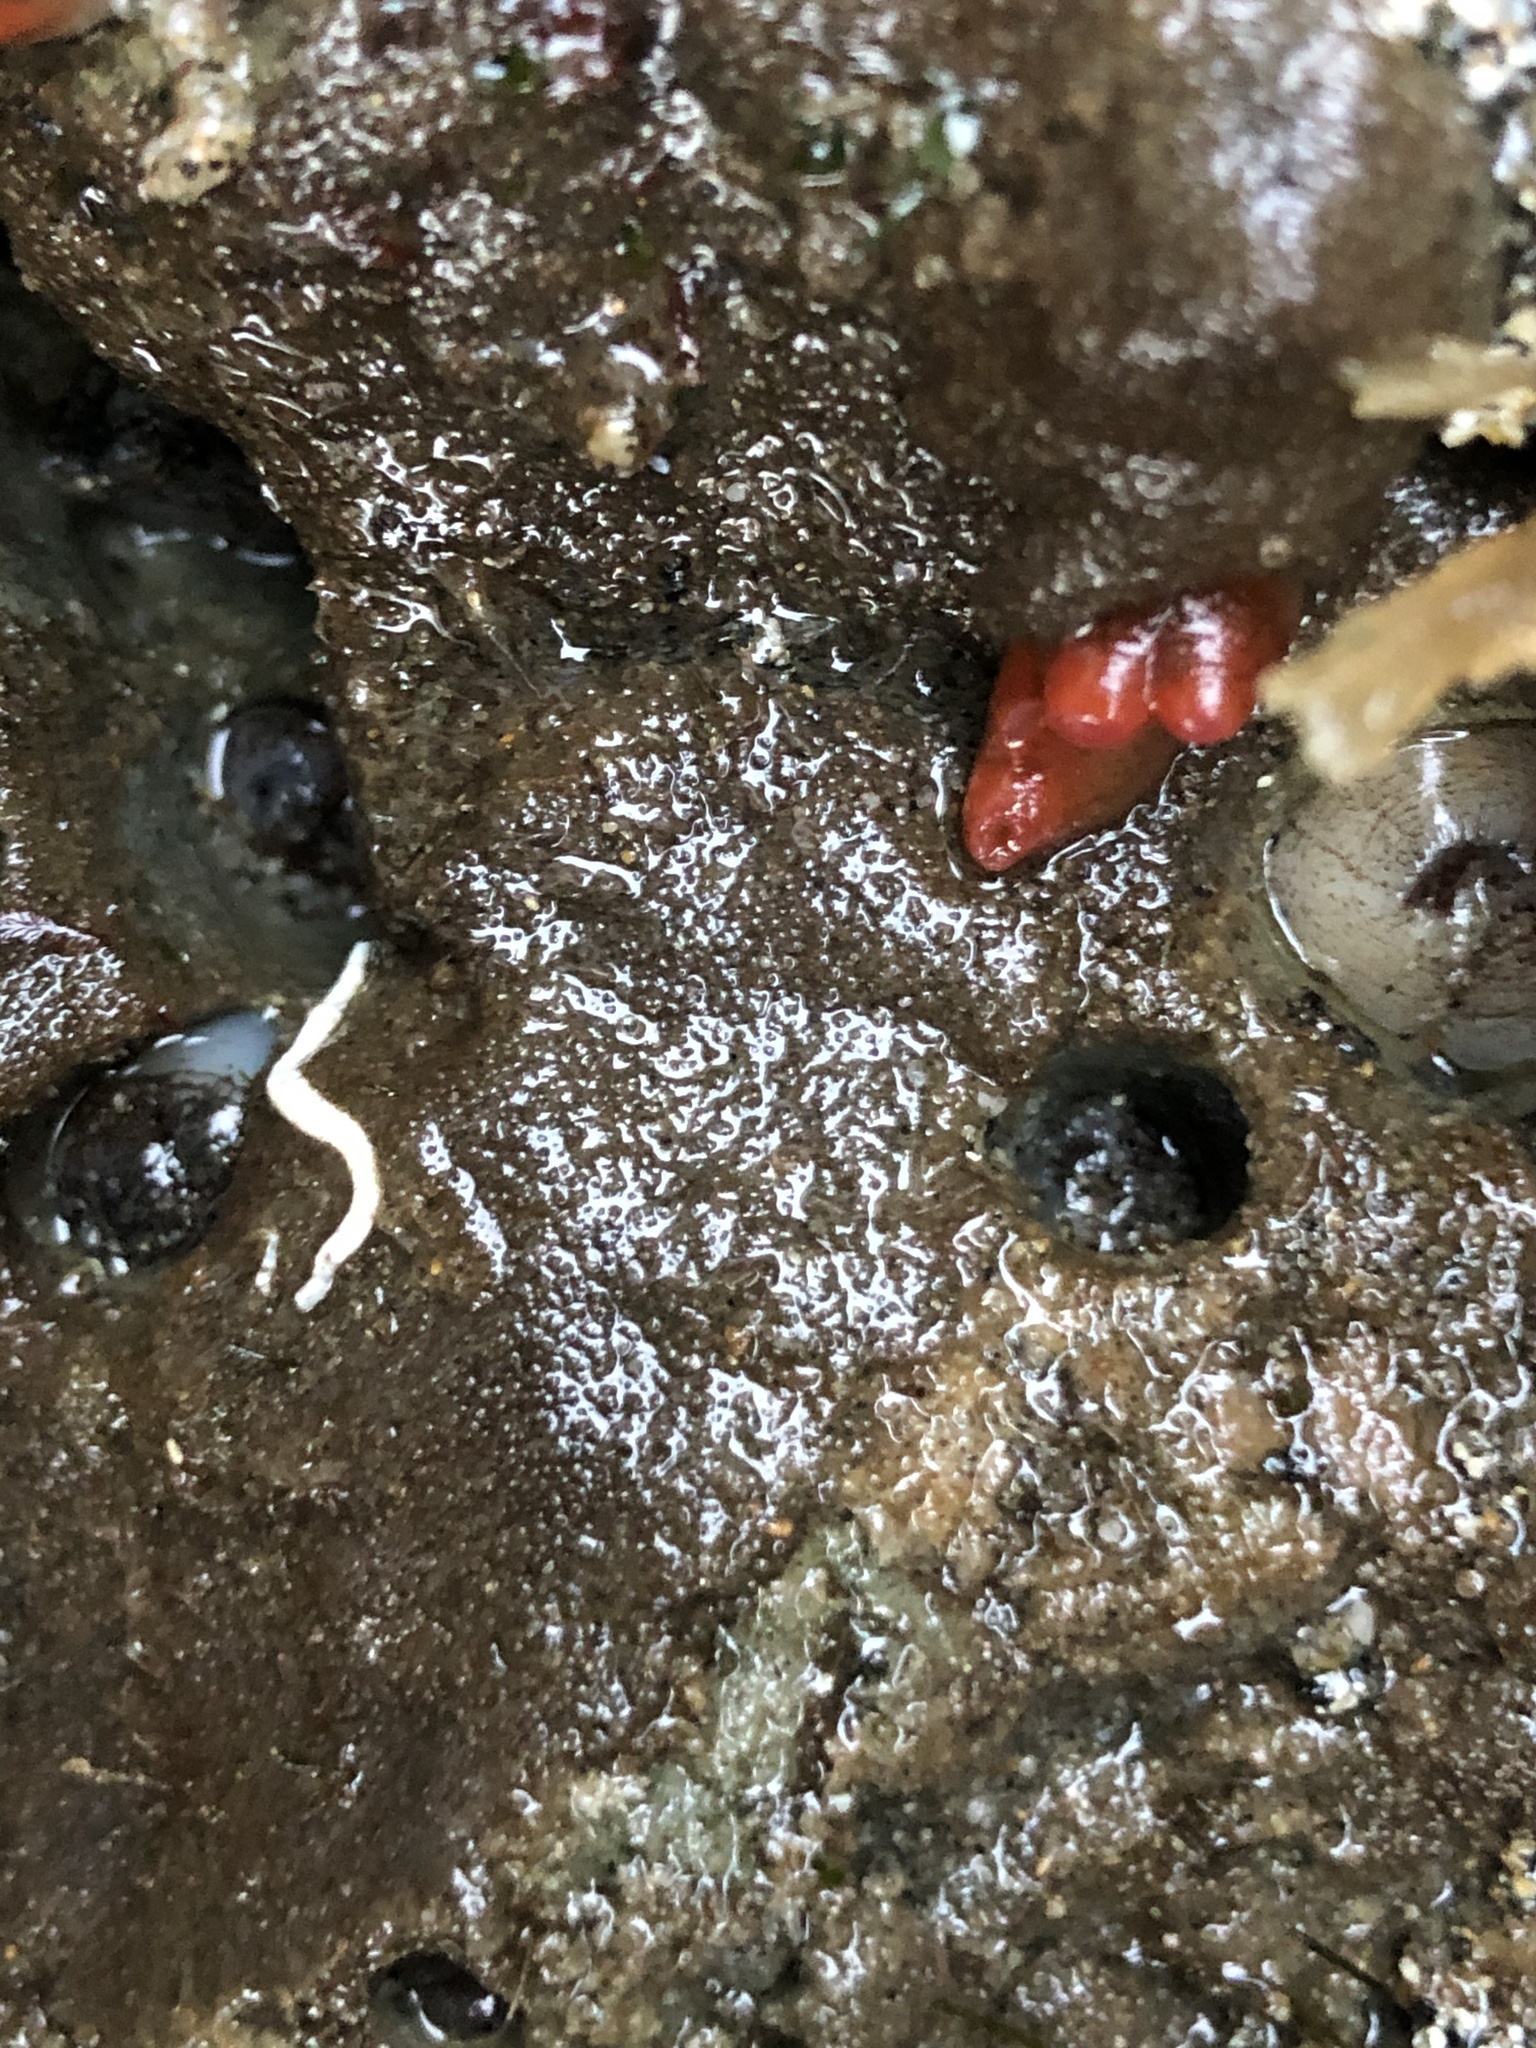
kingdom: Animalia
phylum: Mollusca
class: Bivalvia
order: Adapedonta
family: Hiatellidae
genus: Hiatella
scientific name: Hiatella arctica
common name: Arctic hiatella
